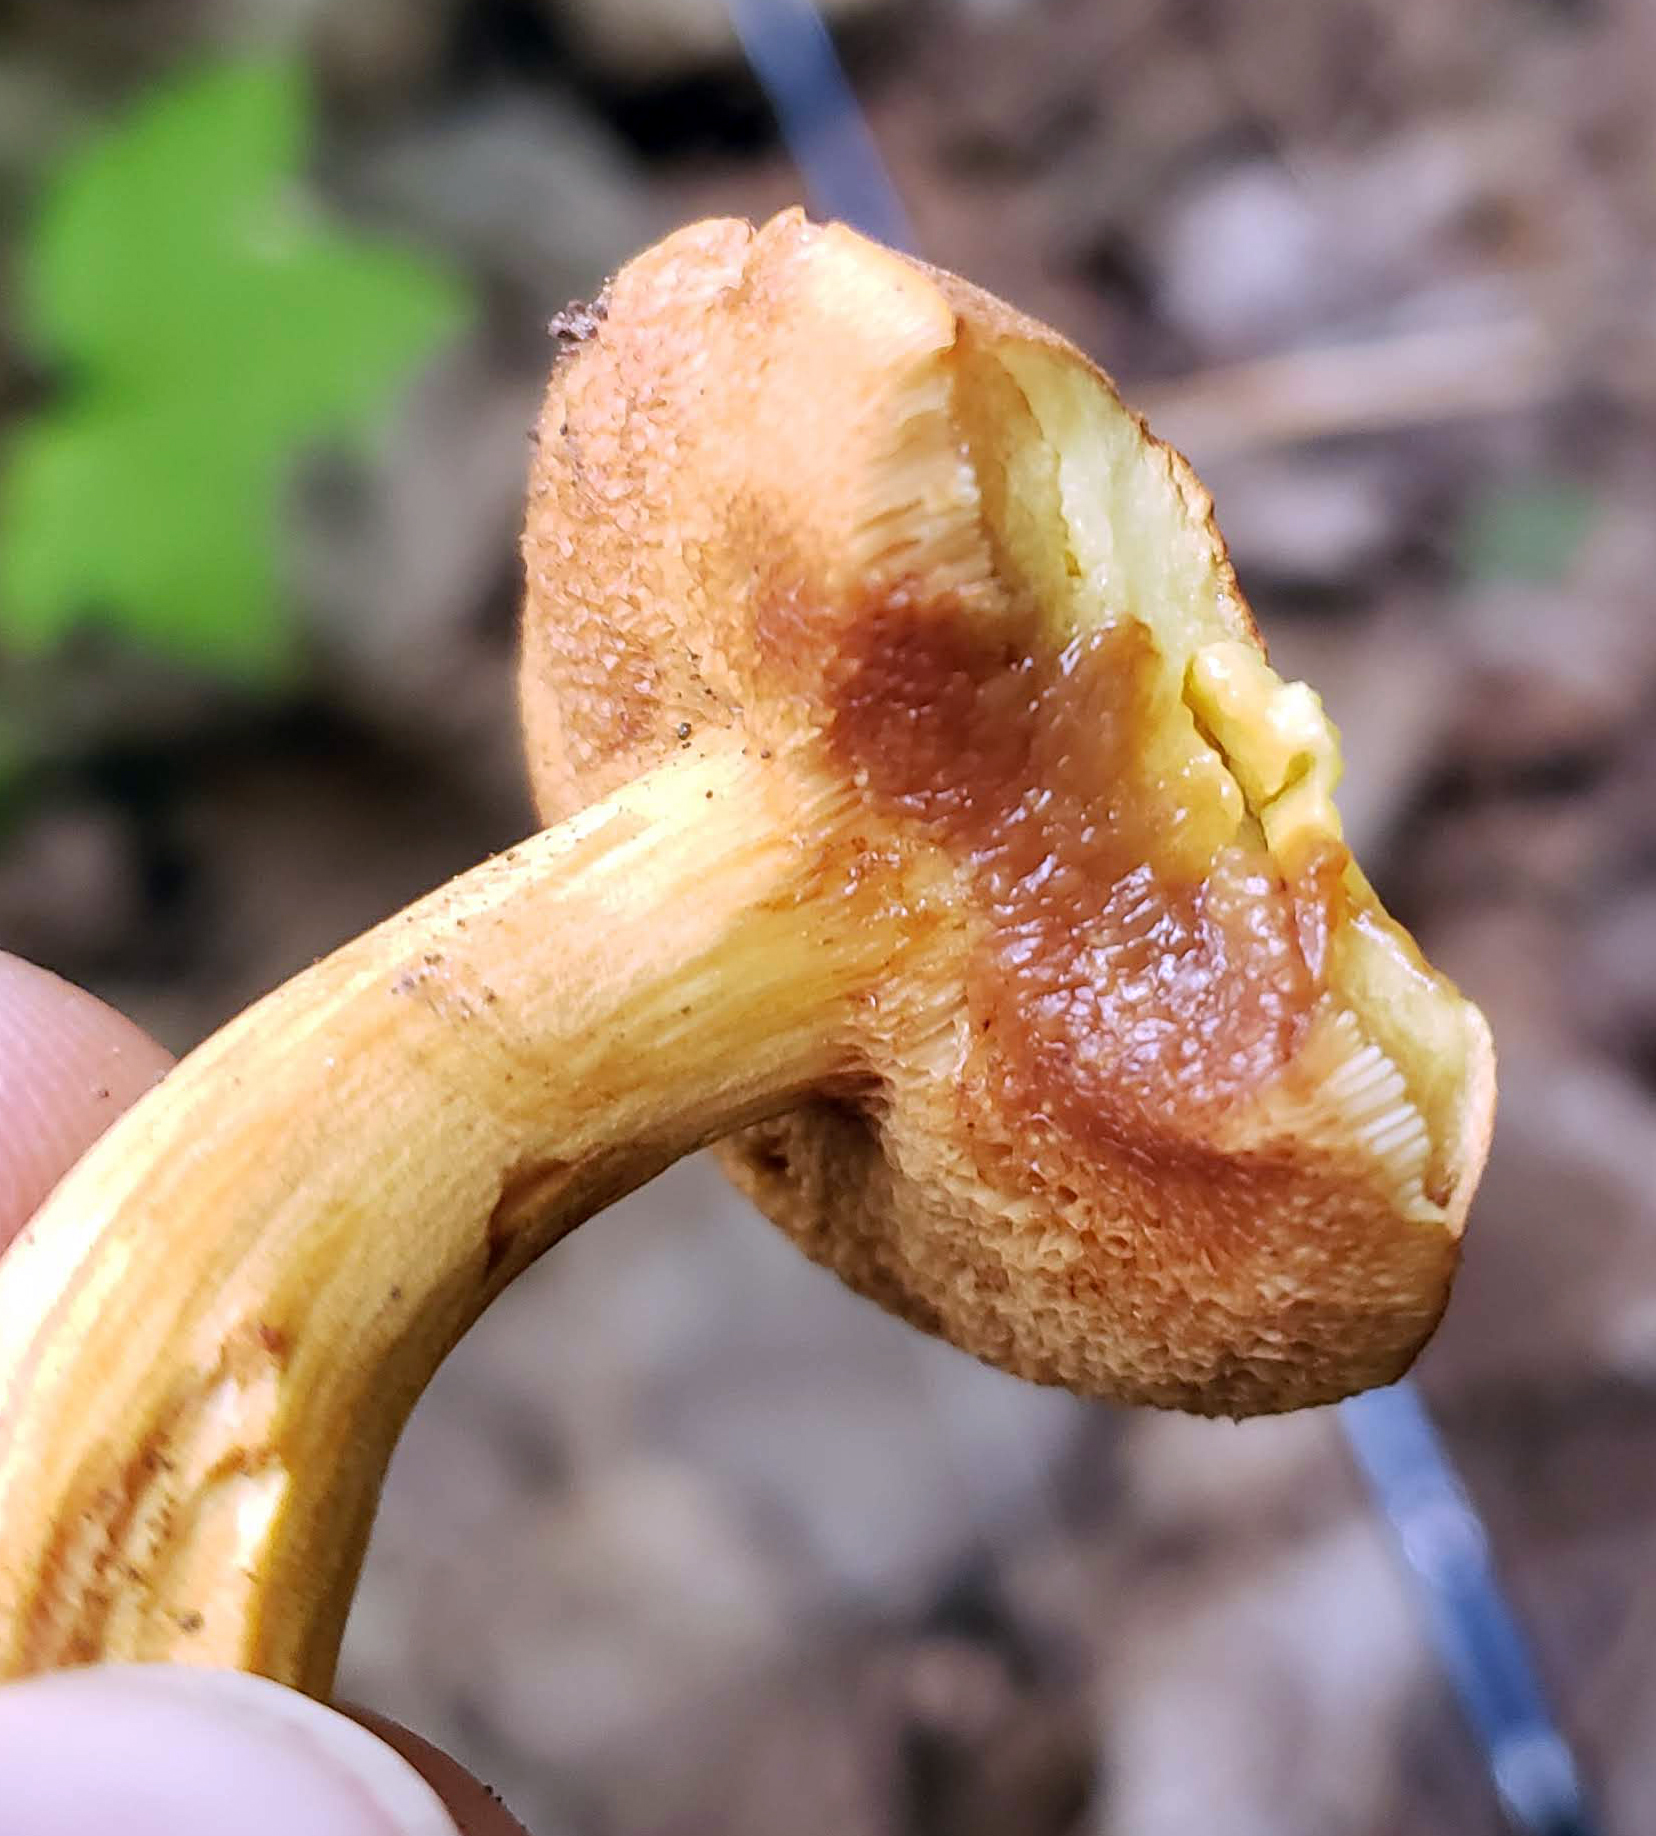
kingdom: Fungi
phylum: Basidiomycota
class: Agaricomycetes
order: Boletales
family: Boletaceae
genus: Chalciporus
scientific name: Chalciporus piperatus
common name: Peppery bolete
